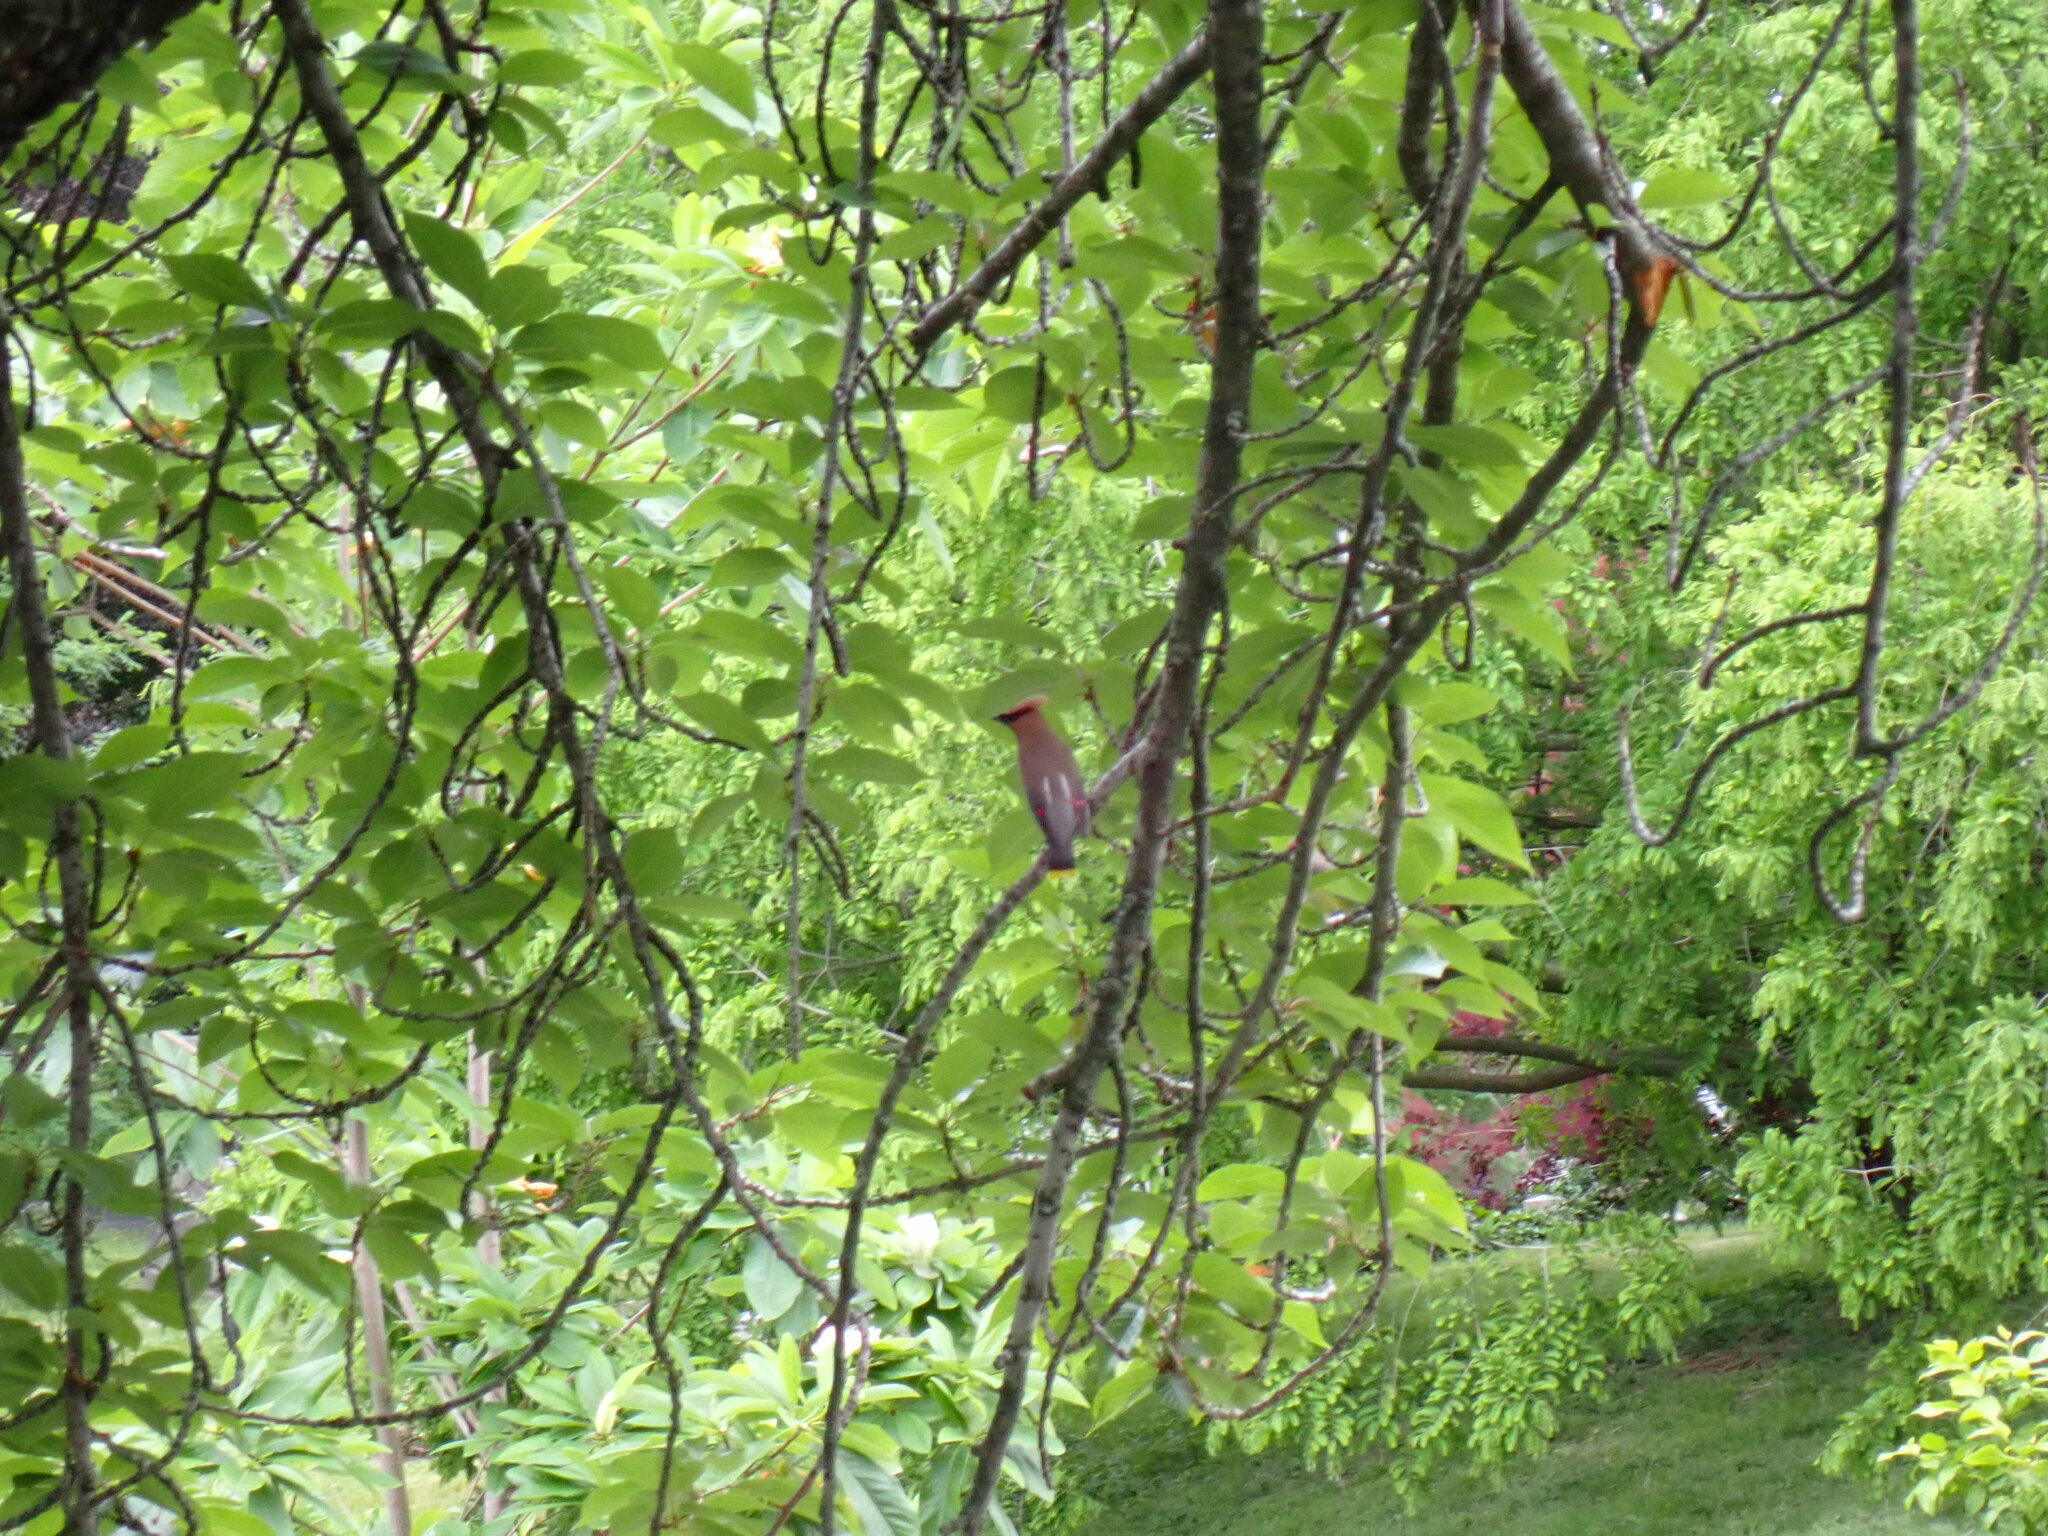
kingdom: Animalia
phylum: Chordata
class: Aves
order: Passeriformes
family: Bombycillidae
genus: Bombycilla
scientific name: Bombycilla cedrorum
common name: Cedar waxwing
